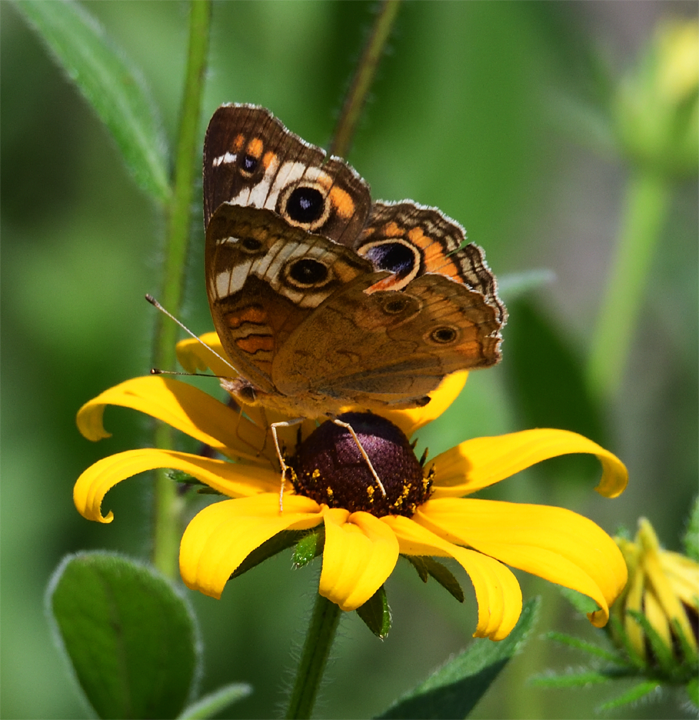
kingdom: Animalia
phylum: Arthropoda
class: Insecta
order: Lepidoptera
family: Nymphalidae
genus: Junonia
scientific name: Junonia coenia
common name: Common buckeye
